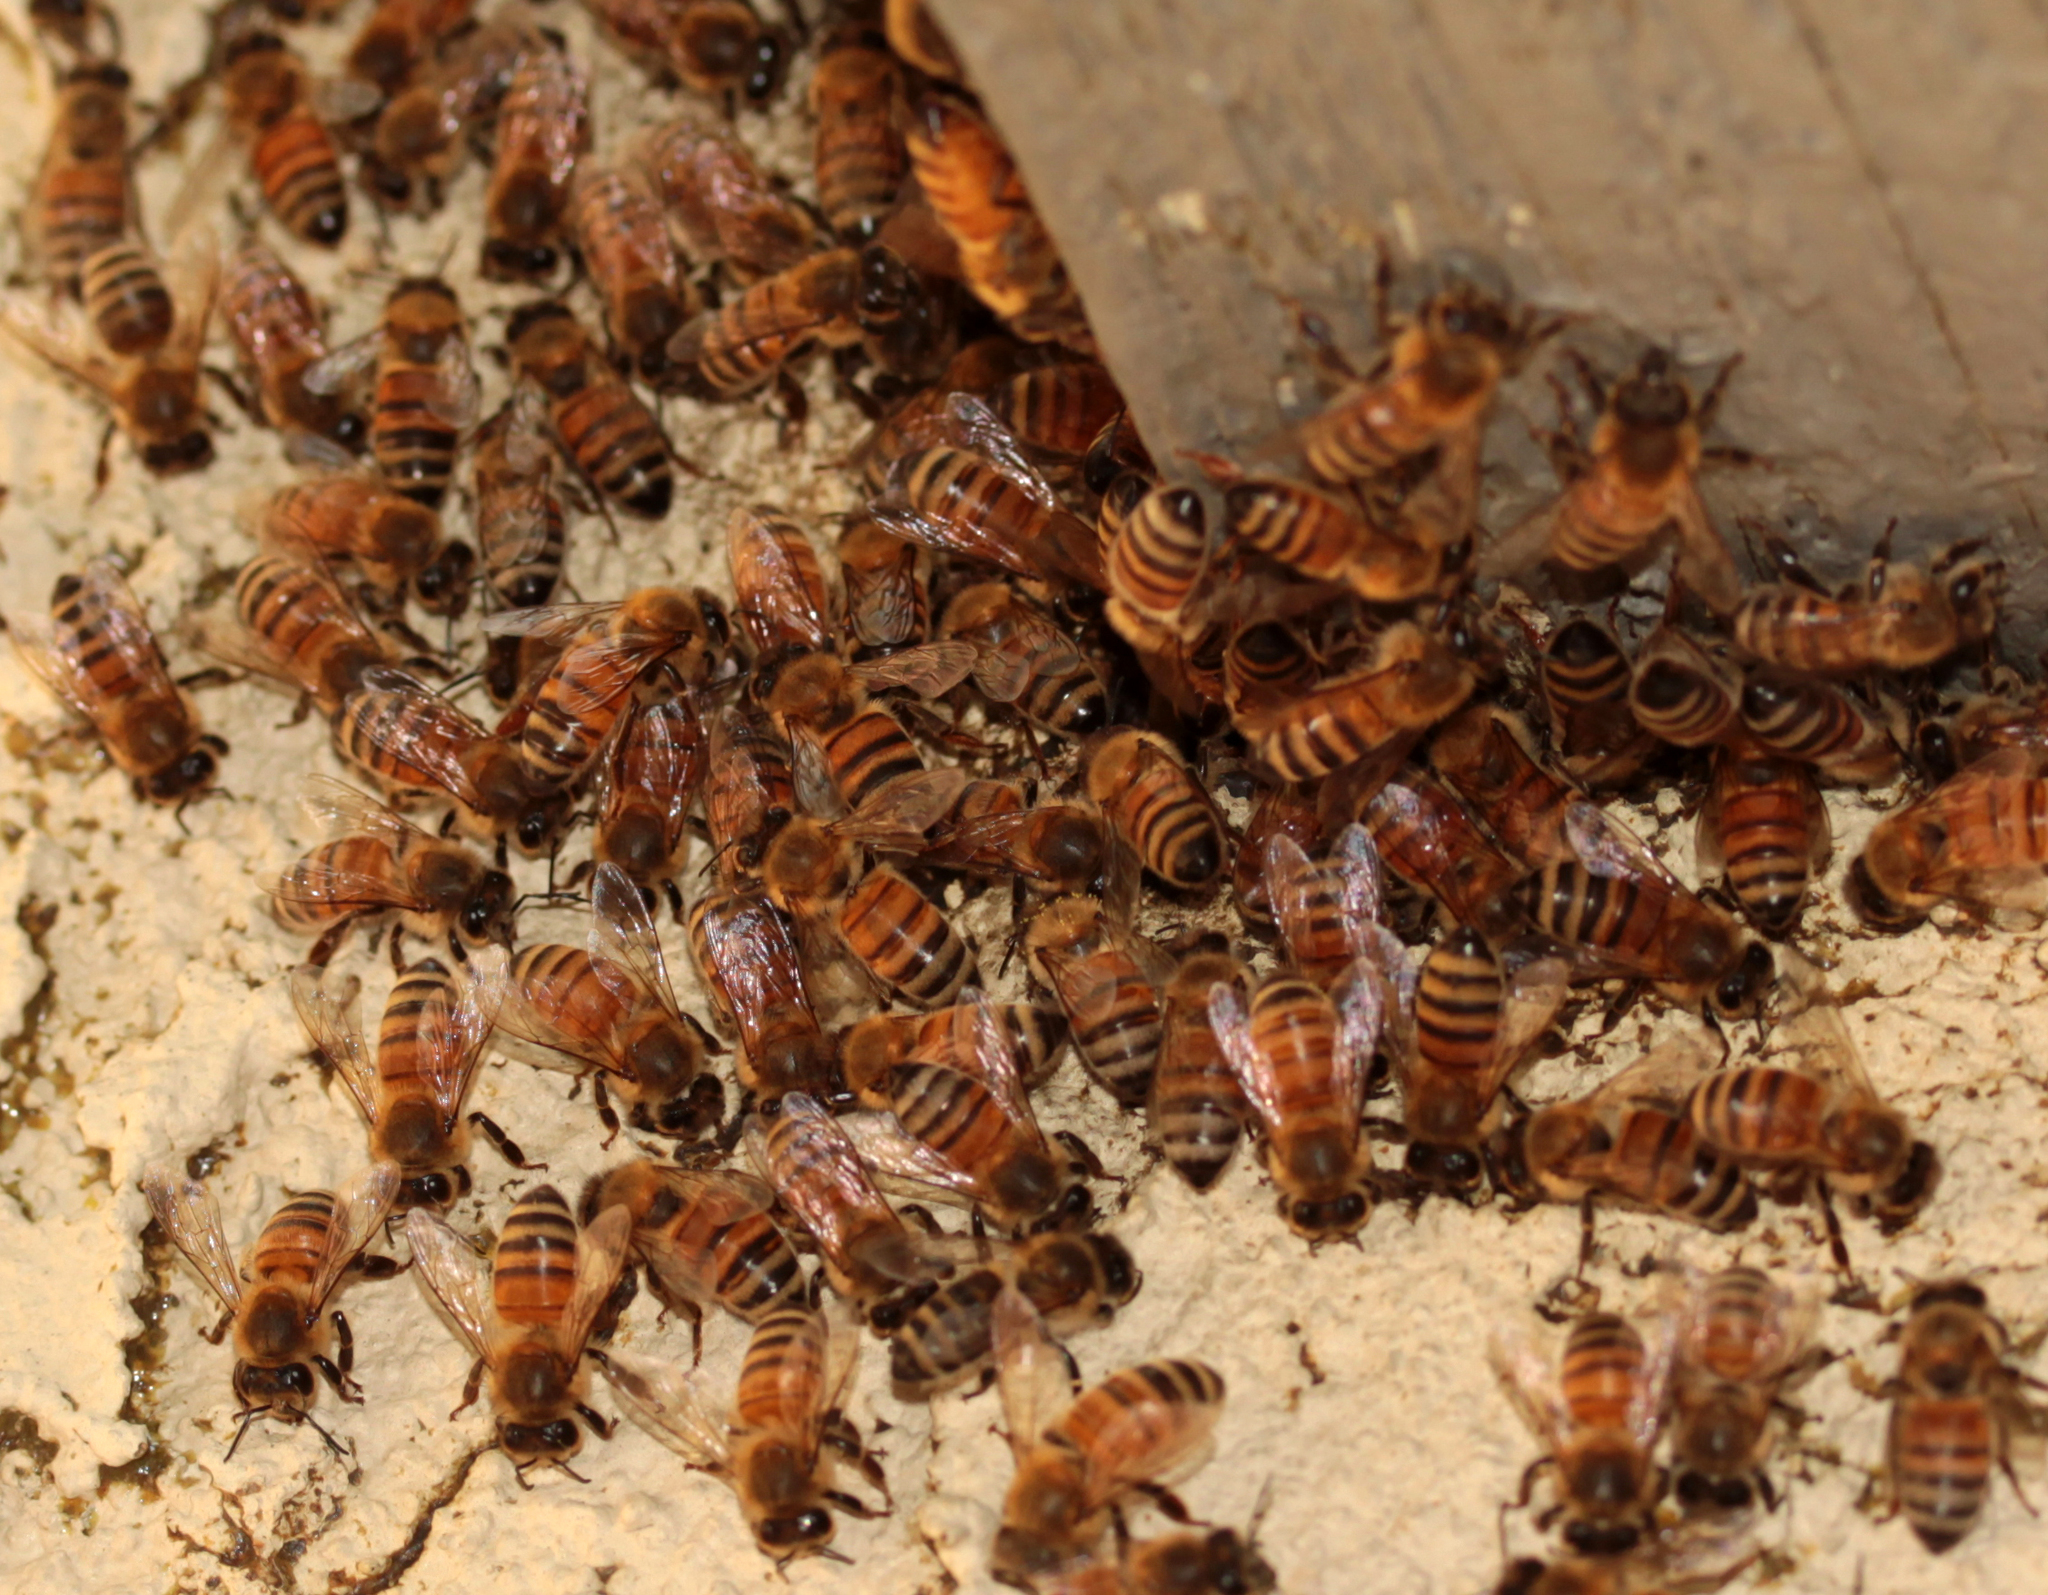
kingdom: Animalia
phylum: Arthropoda
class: Insecta
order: Hymenoptera
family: Apidae
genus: Apis
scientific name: Apis mellifera
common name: Honey bee
